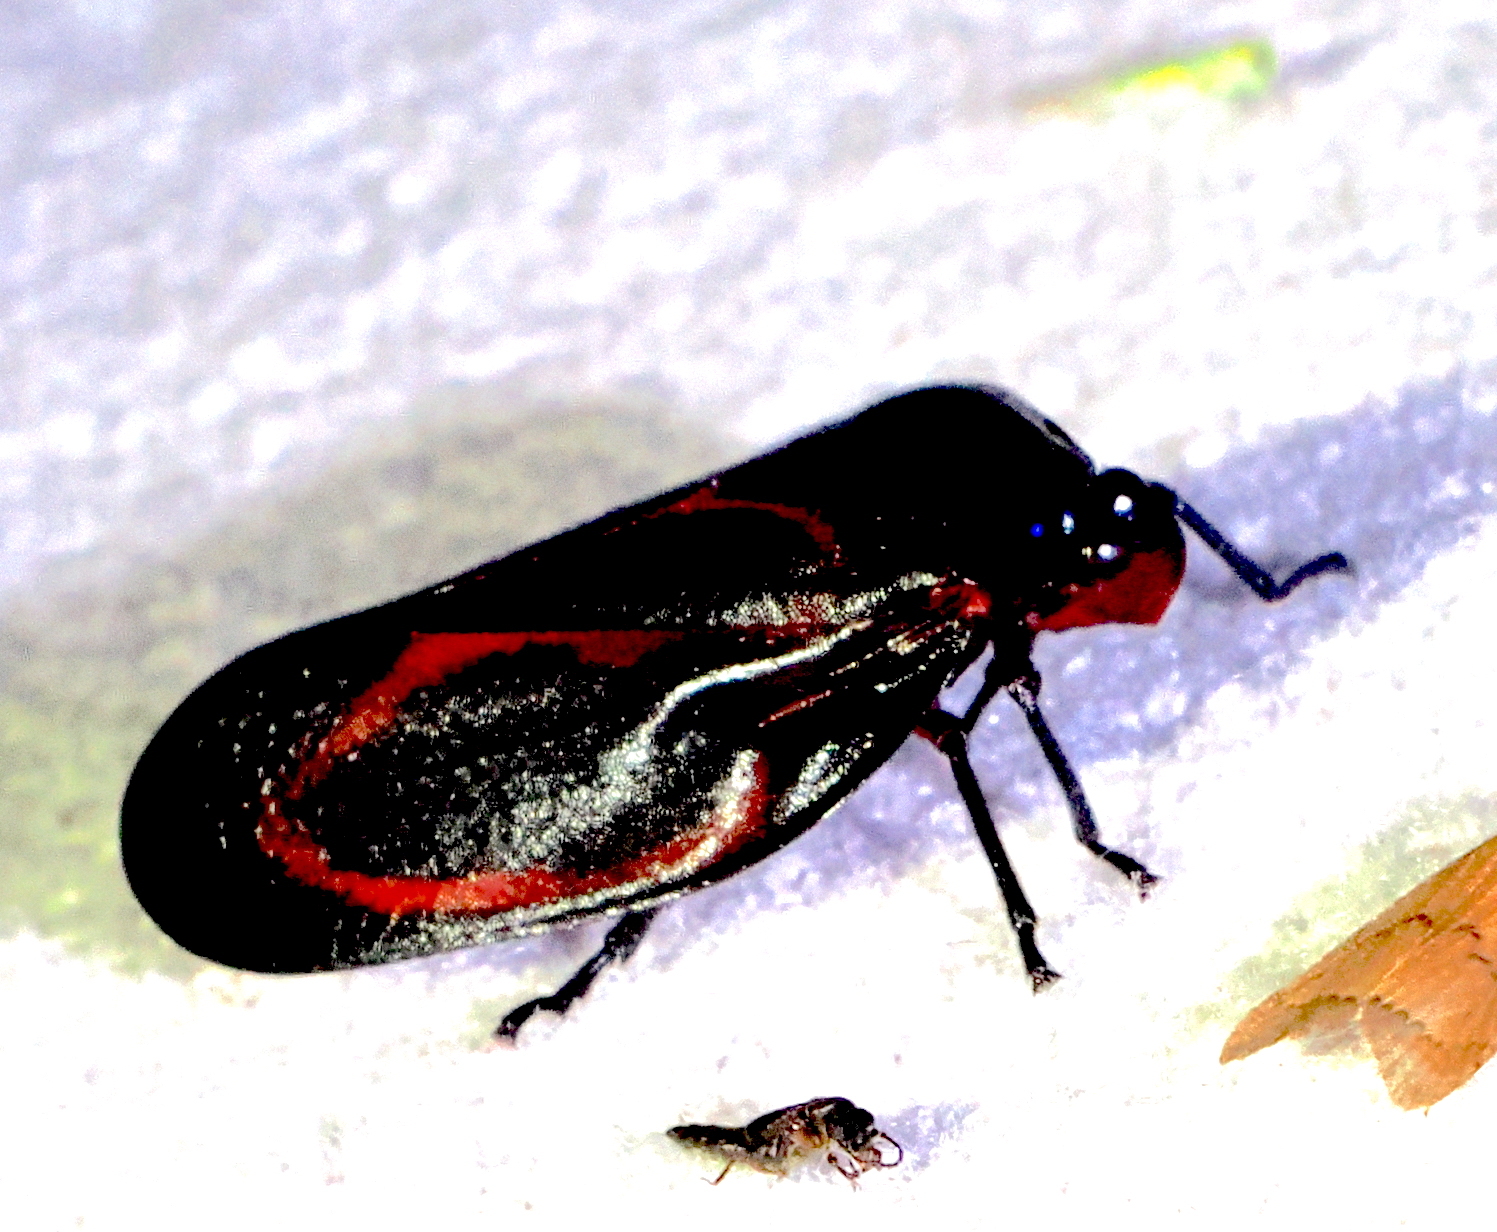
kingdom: Animalia
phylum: Arthropoda
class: Insecta
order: Hemiptera
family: Cercopidae
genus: Tomaspis
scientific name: Tomaspis inclusa
